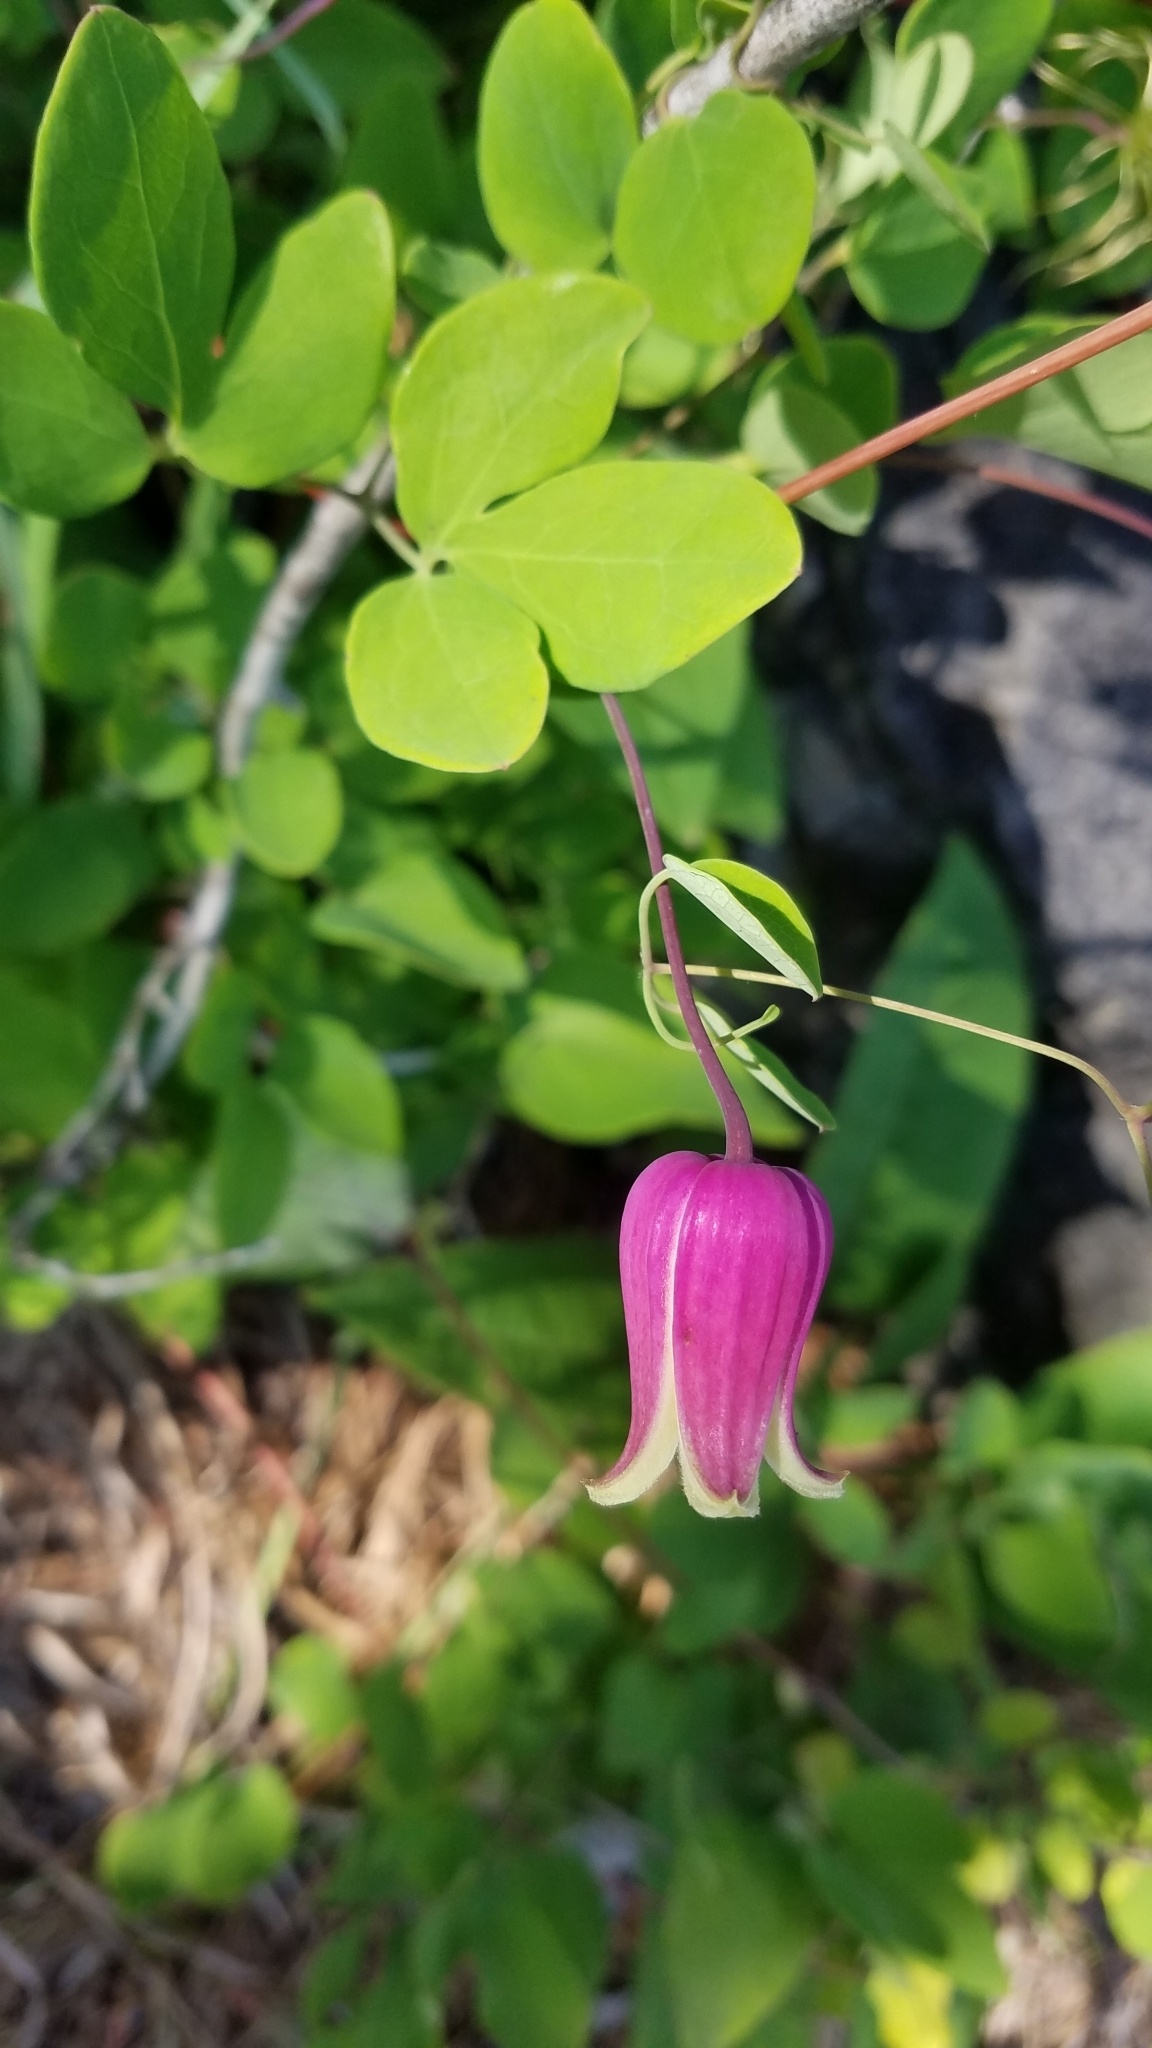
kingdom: Plantae
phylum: Tracheophyta
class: Magnoliopsida
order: Ranunculales
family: Ranunculaceae
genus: Clematis
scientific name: Clematis glaucophylla
